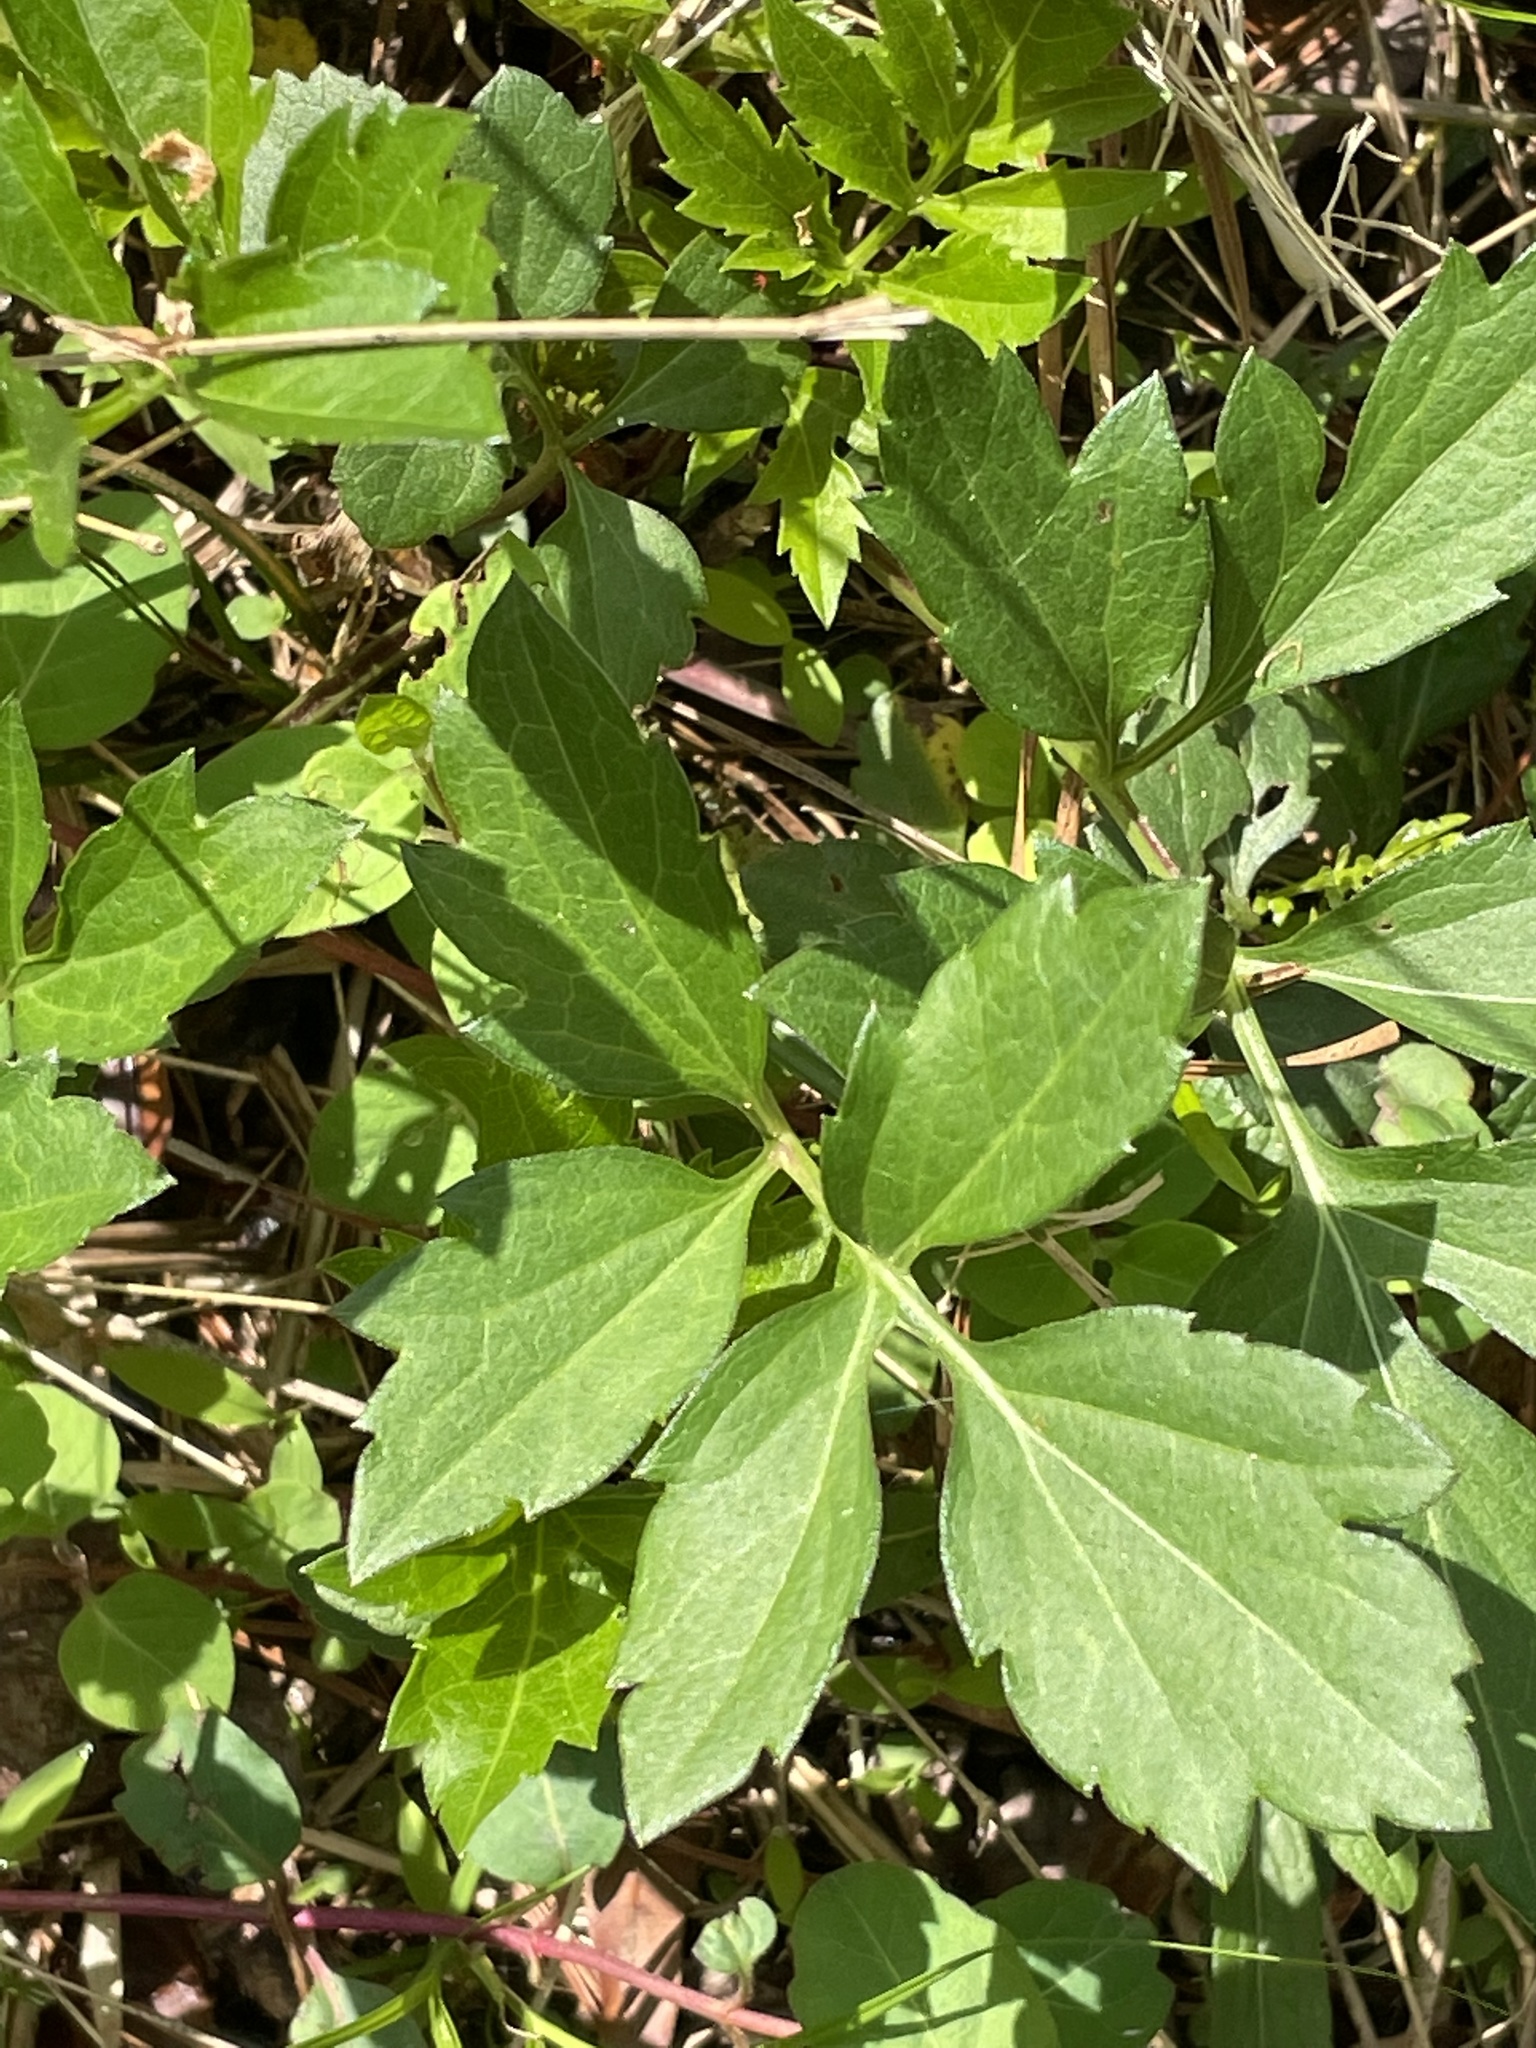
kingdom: Plantae
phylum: Tracheophyta
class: Magnoliopsida
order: Asterales
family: Asteraceae
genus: Rudbeckia
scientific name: Rudbeckia laciniata
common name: Coneflower
